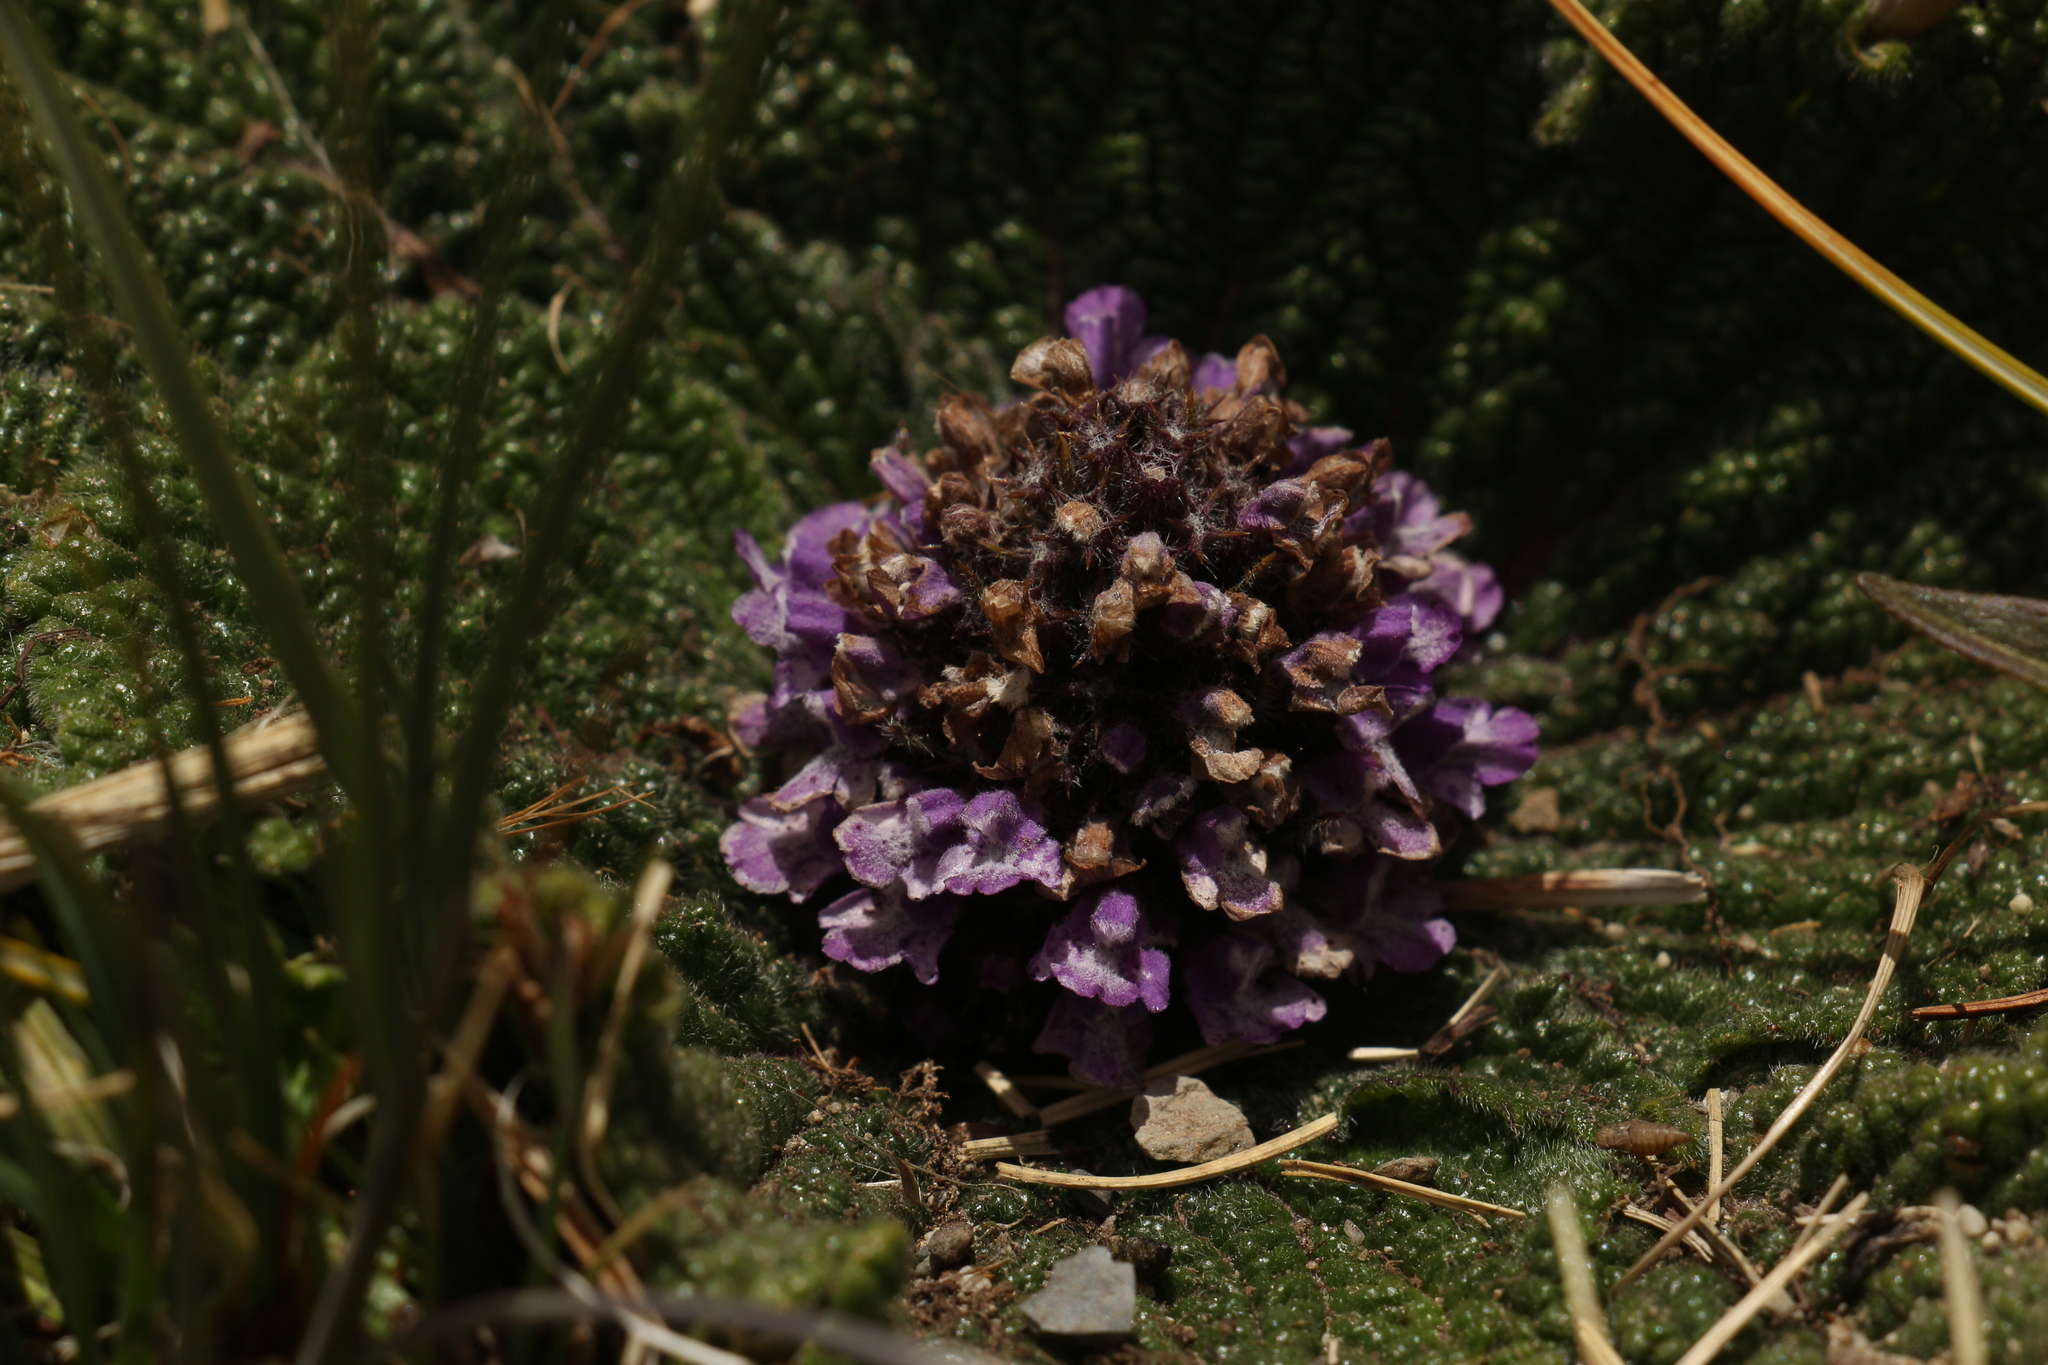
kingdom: Plantae
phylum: Tracheophyta
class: Magnoliopsida
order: Lamiales
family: Lamiaceae
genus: Phlomoides
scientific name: Phlomoides rotata
